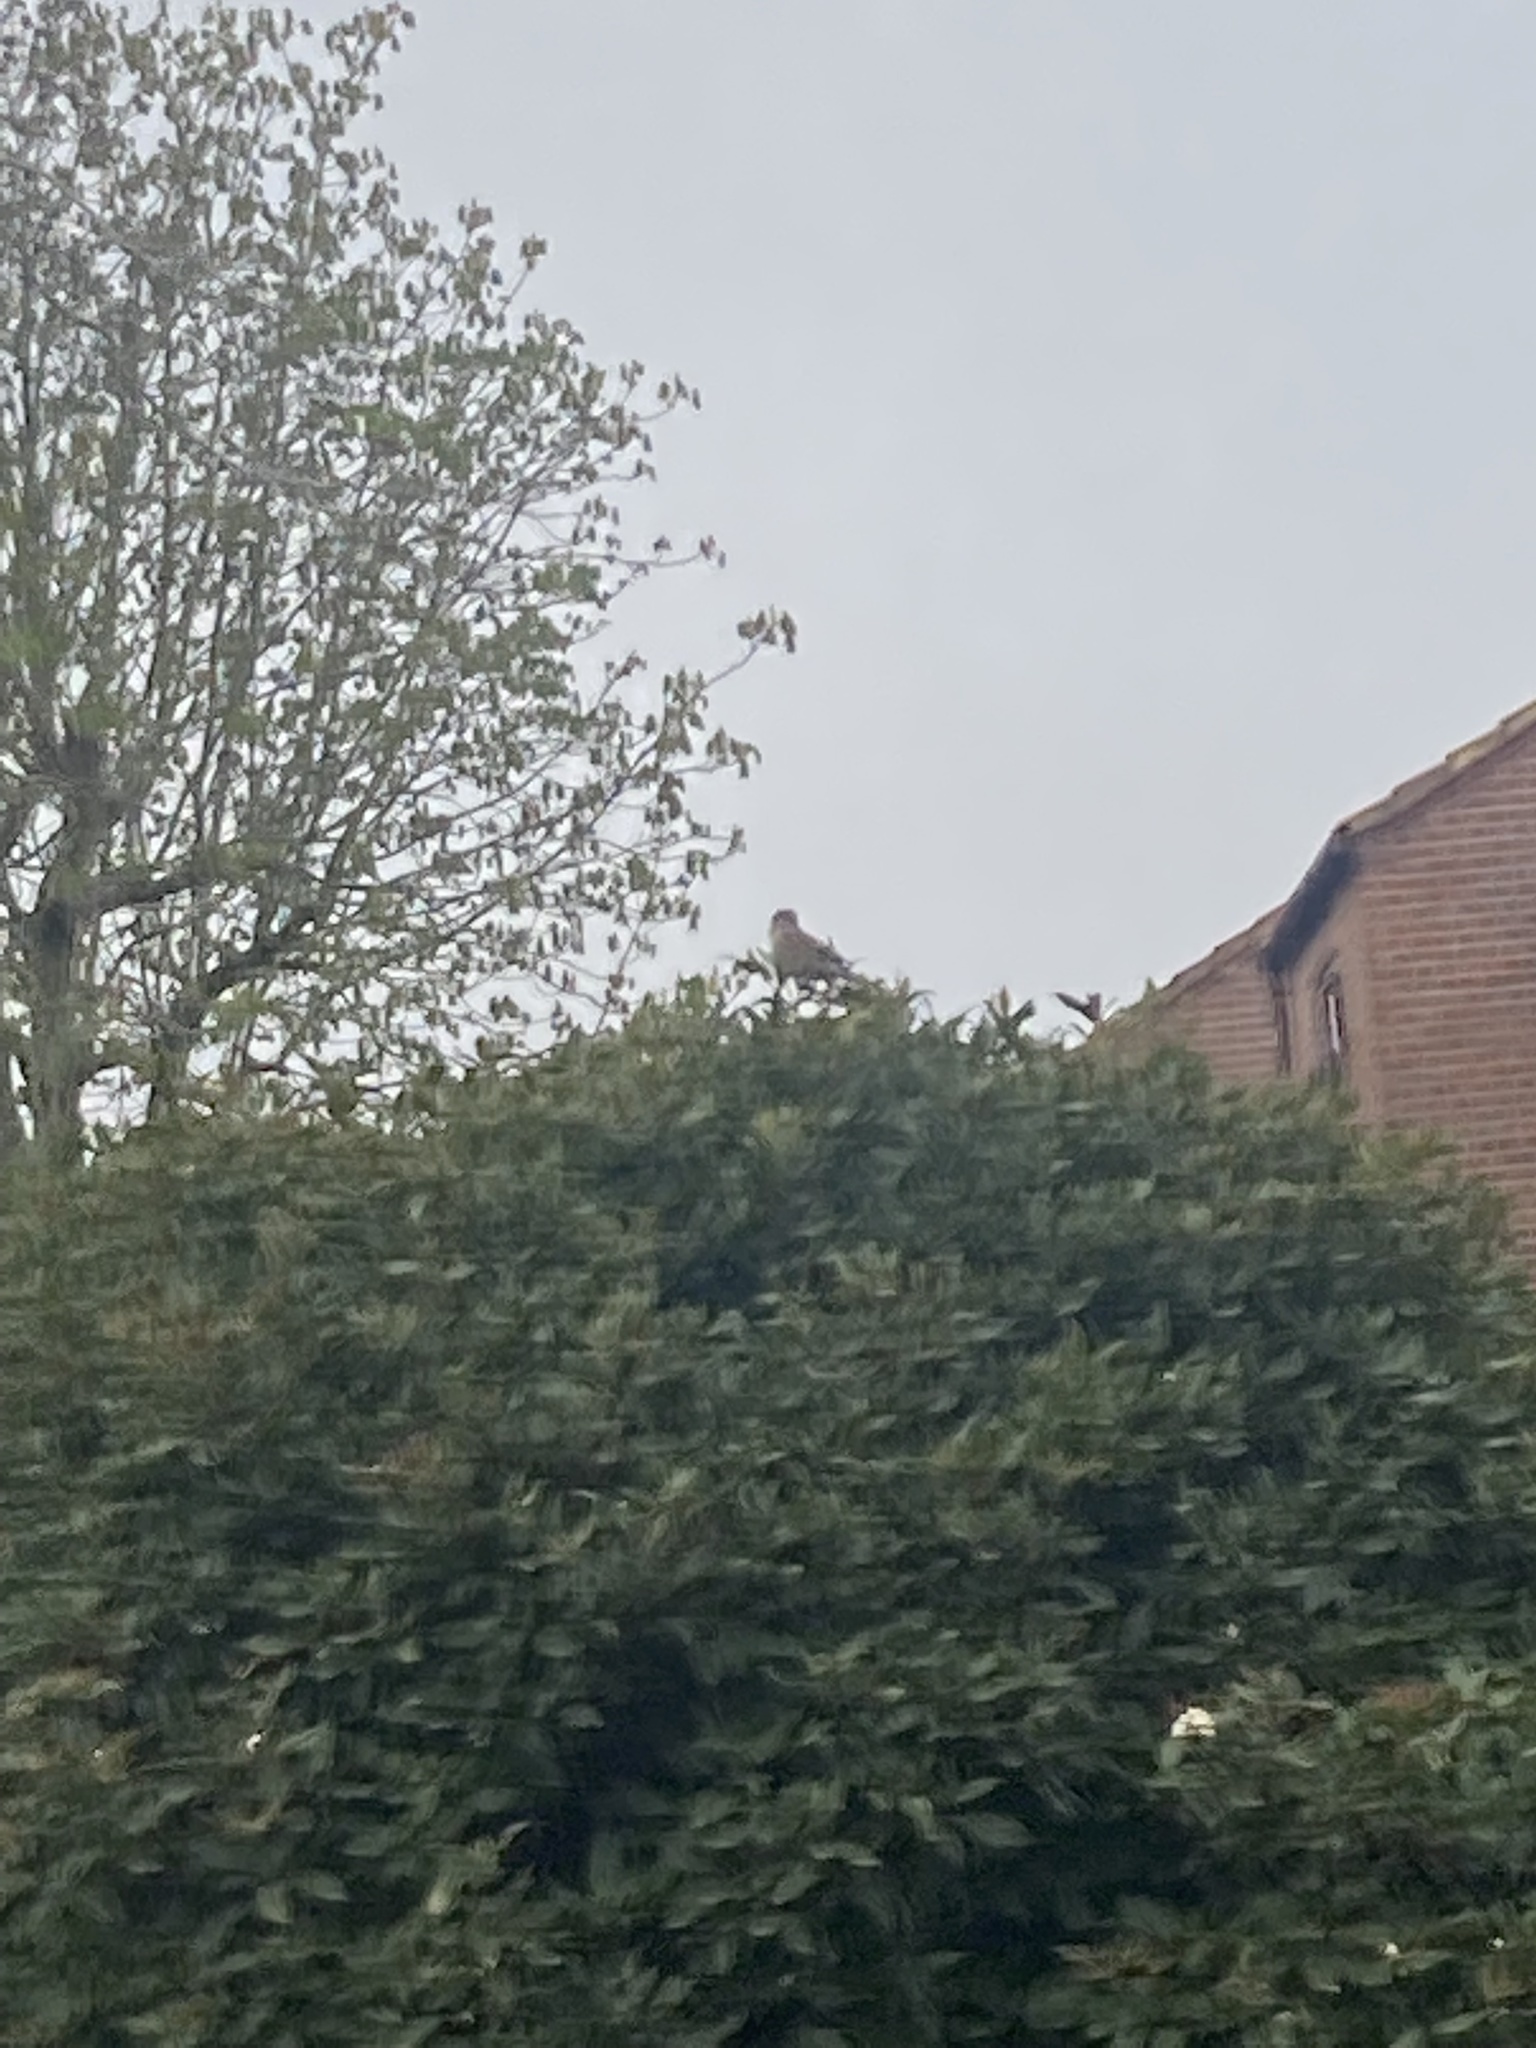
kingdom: Animalia
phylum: Chordata
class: Aves
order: Passeriformes
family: Passeridae
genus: Passer
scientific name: Passer domesticus
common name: House sparrow
